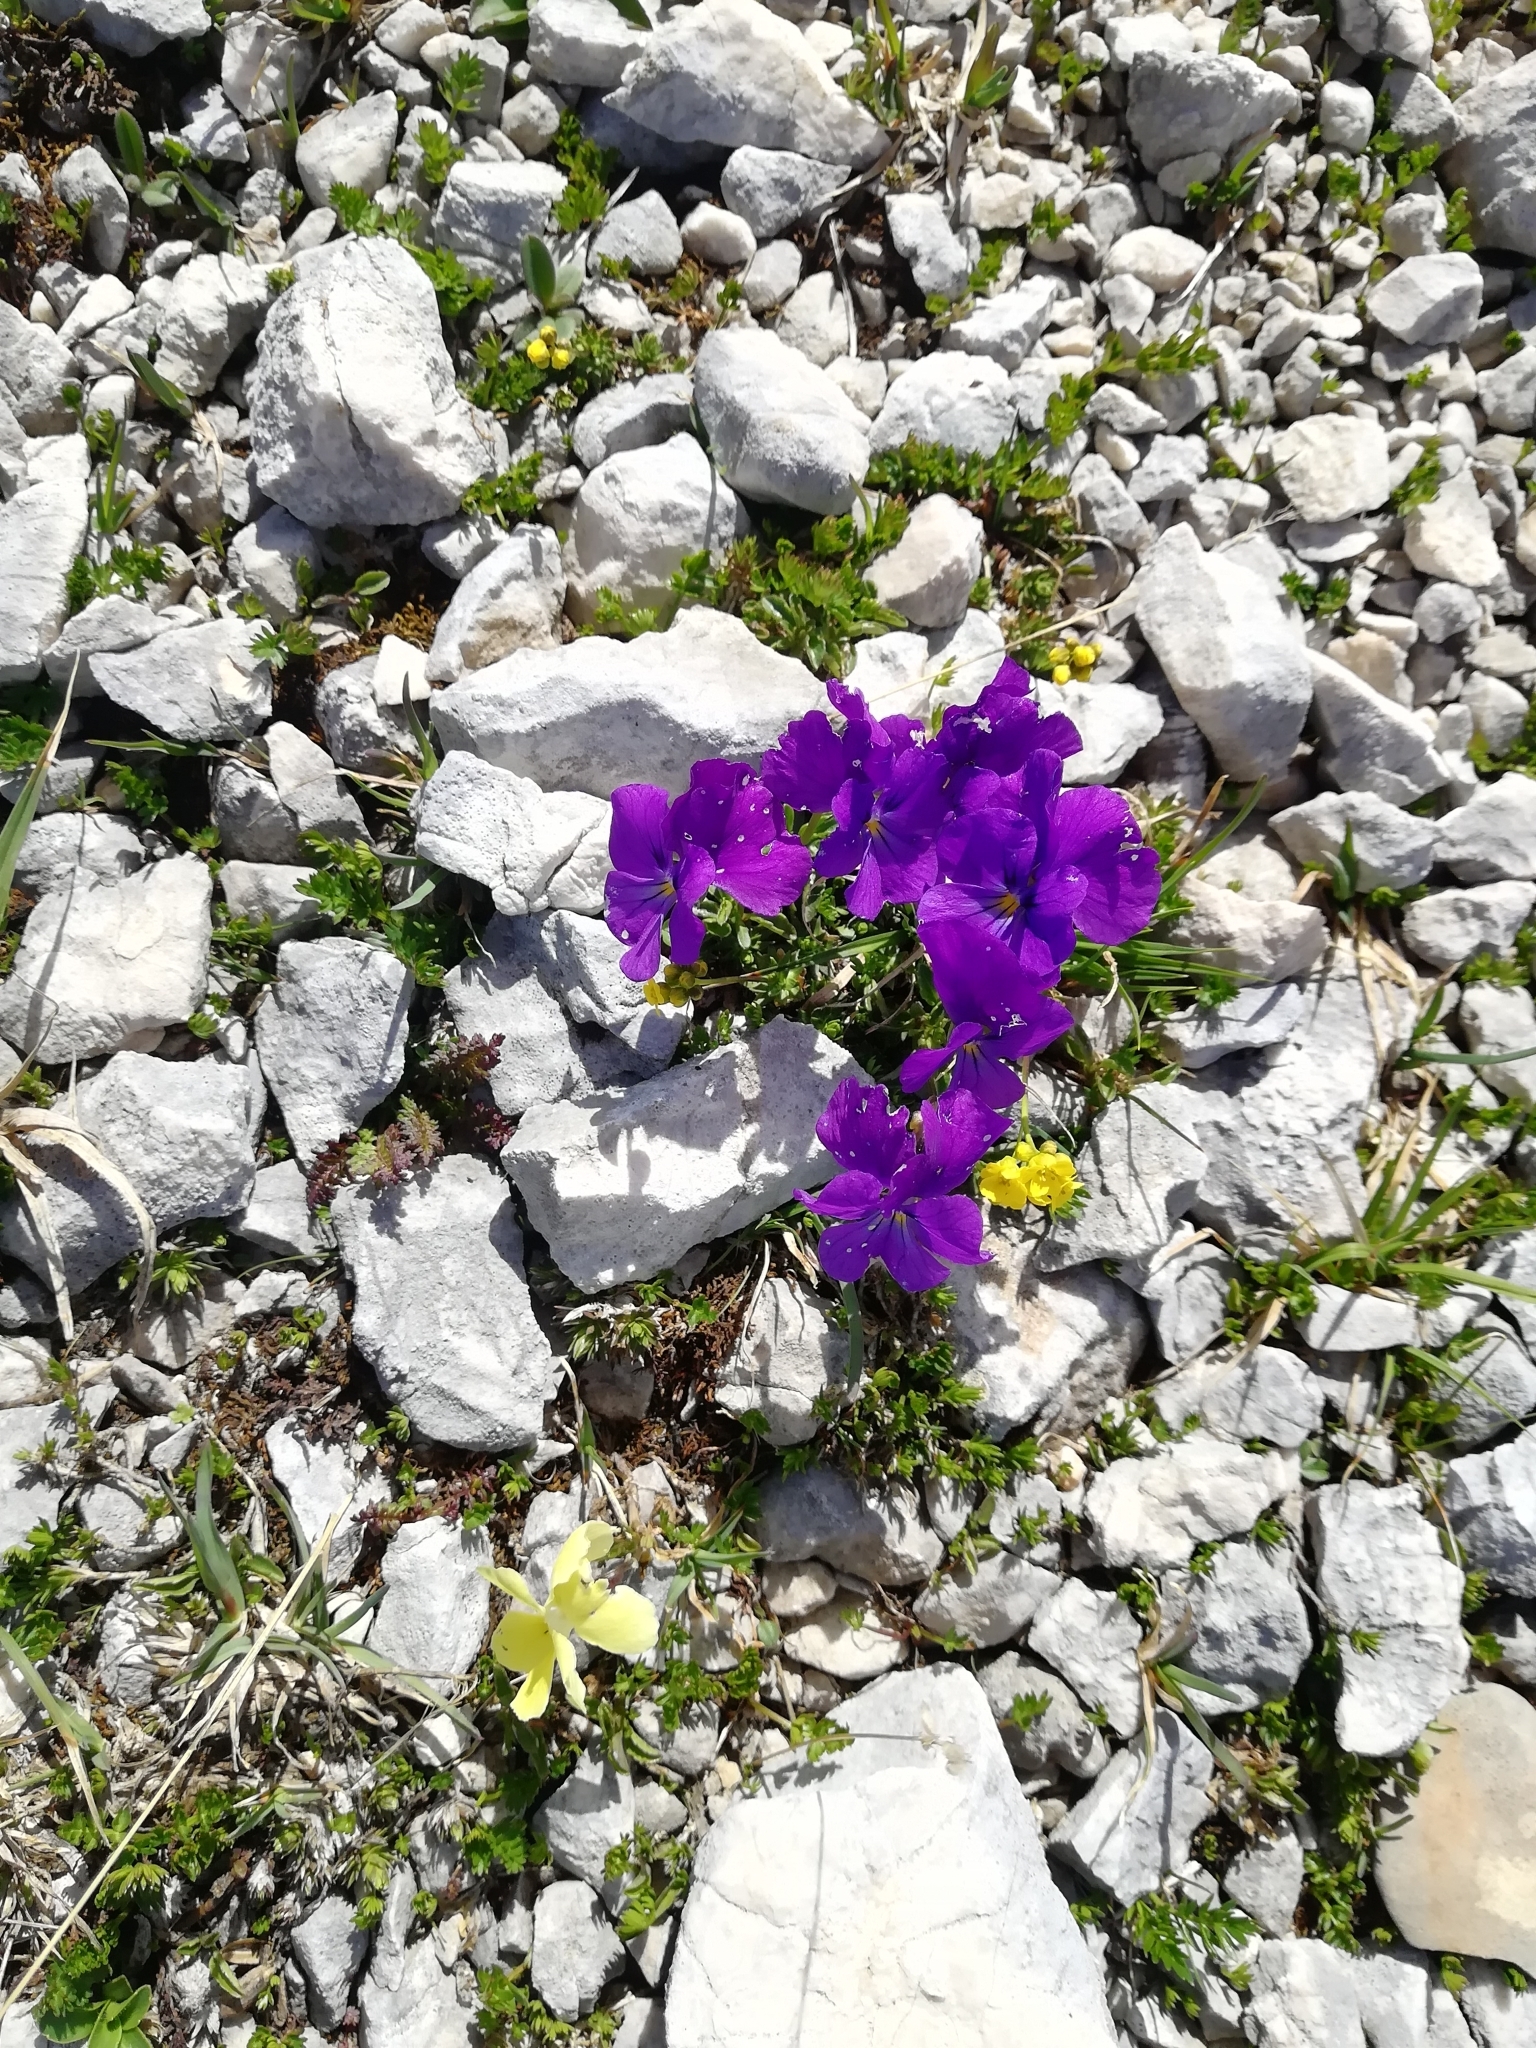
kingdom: Plantae
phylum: Tracheophyta
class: Magnoliopsida
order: Malpighiales
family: Violaceae
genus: Viola
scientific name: Viola oreades
